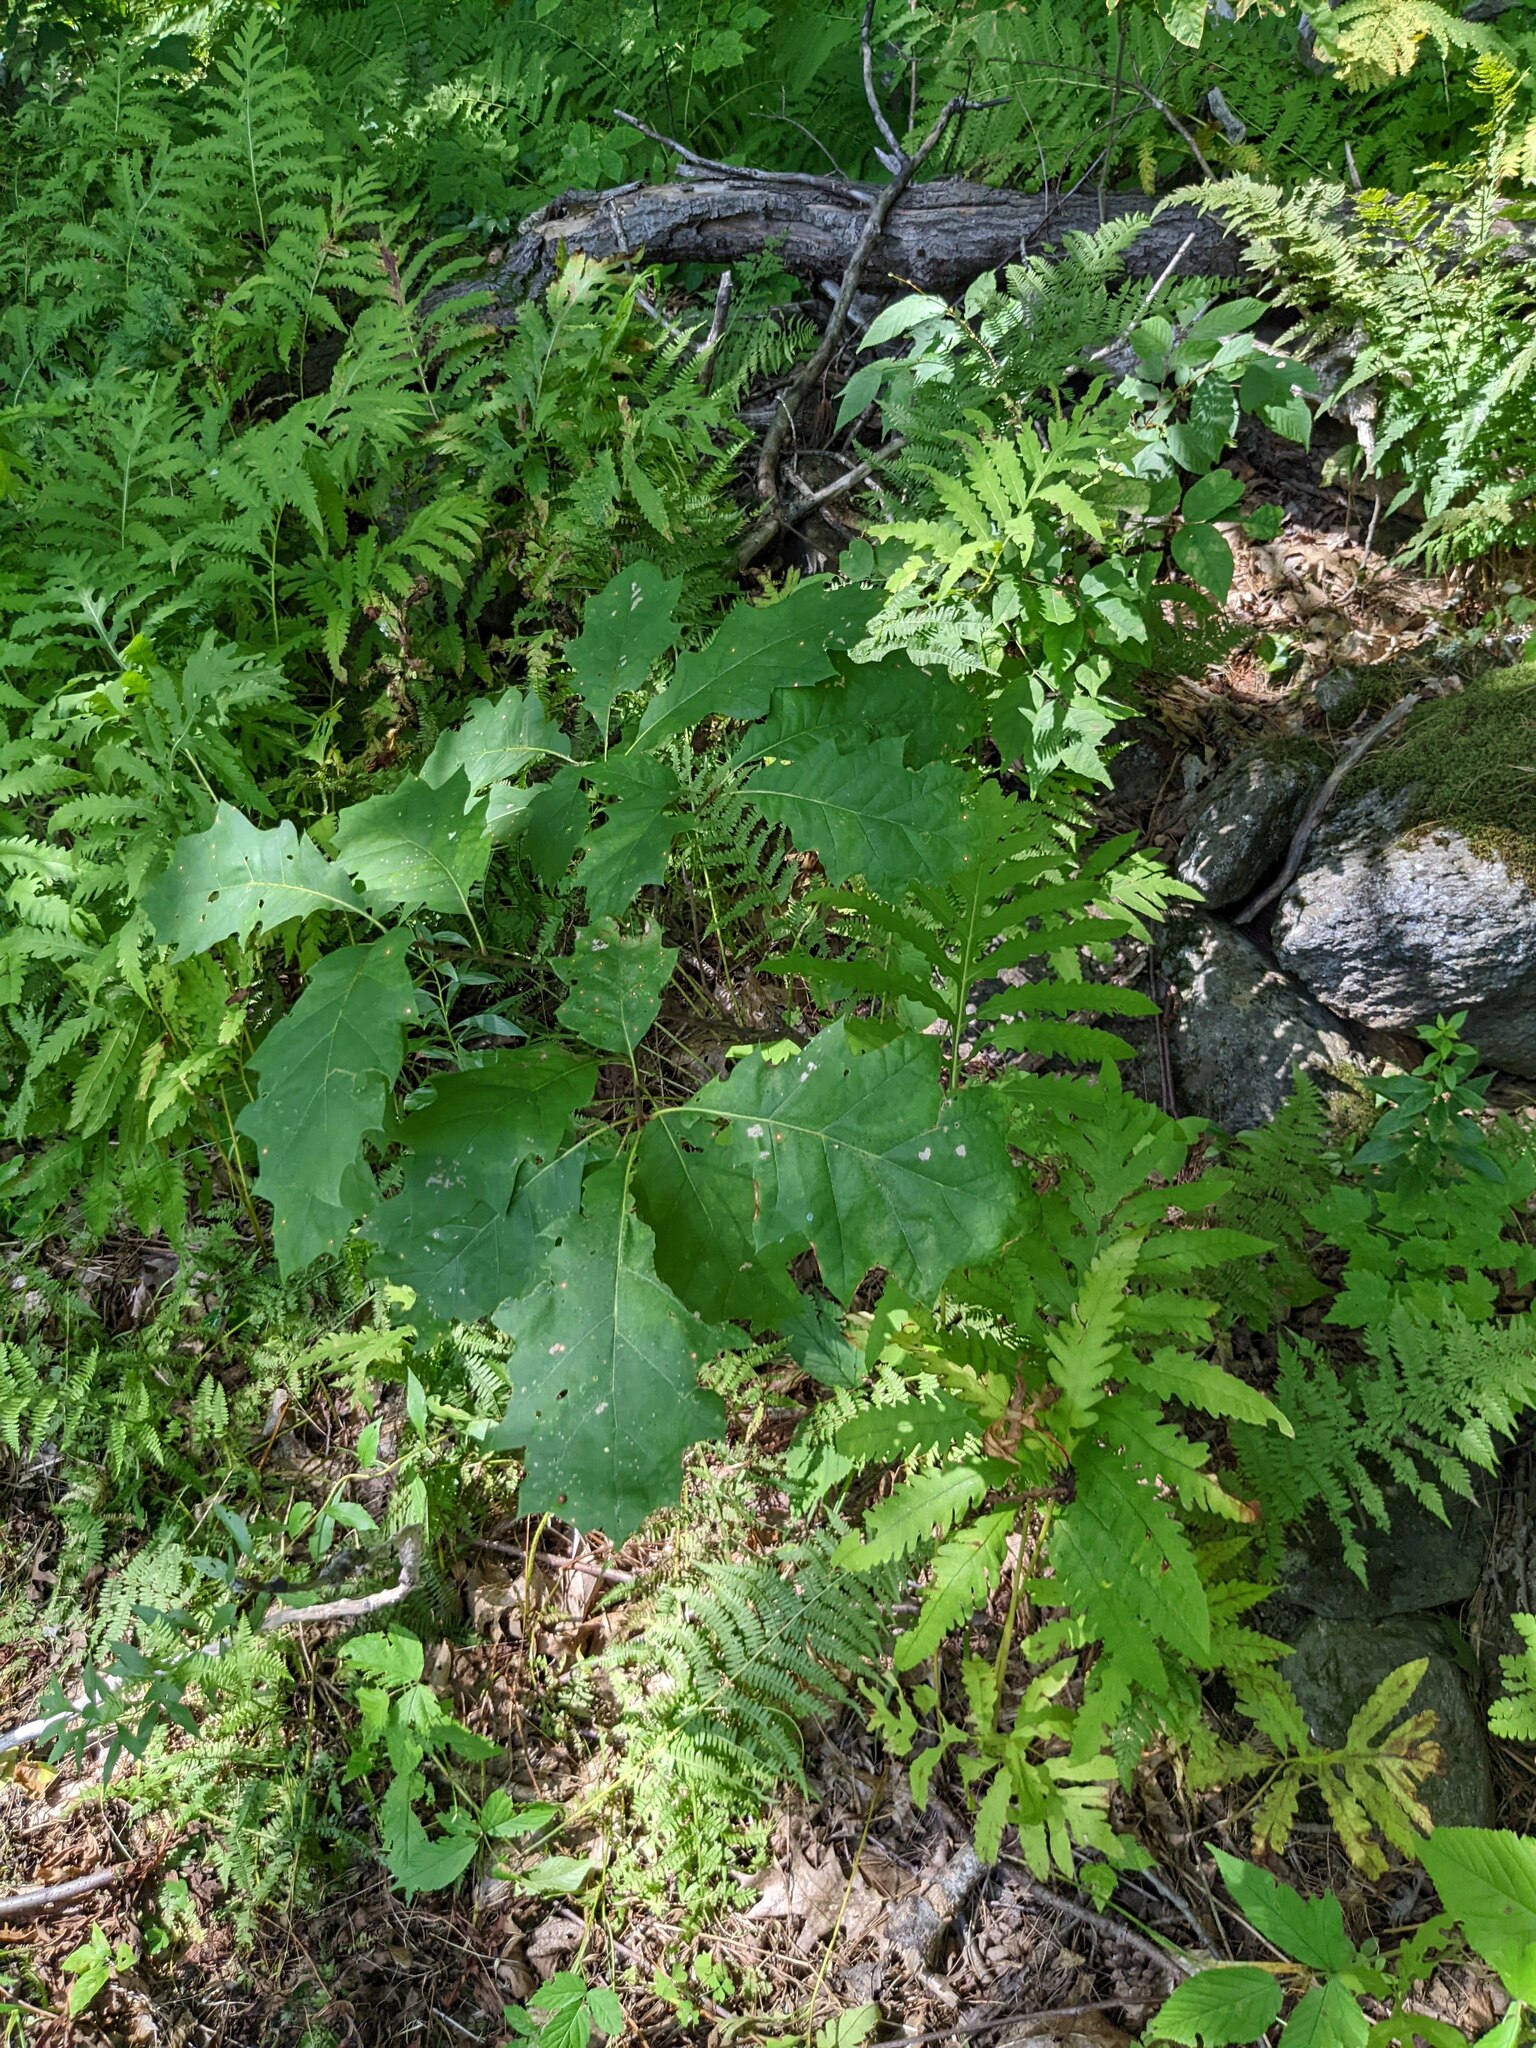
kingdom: Plantae
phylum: Tracheophyta
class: Magnoliopsida
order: Fagales
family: Fagaceae
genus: Quercus
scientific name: Quercus rubra
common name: Red oak
